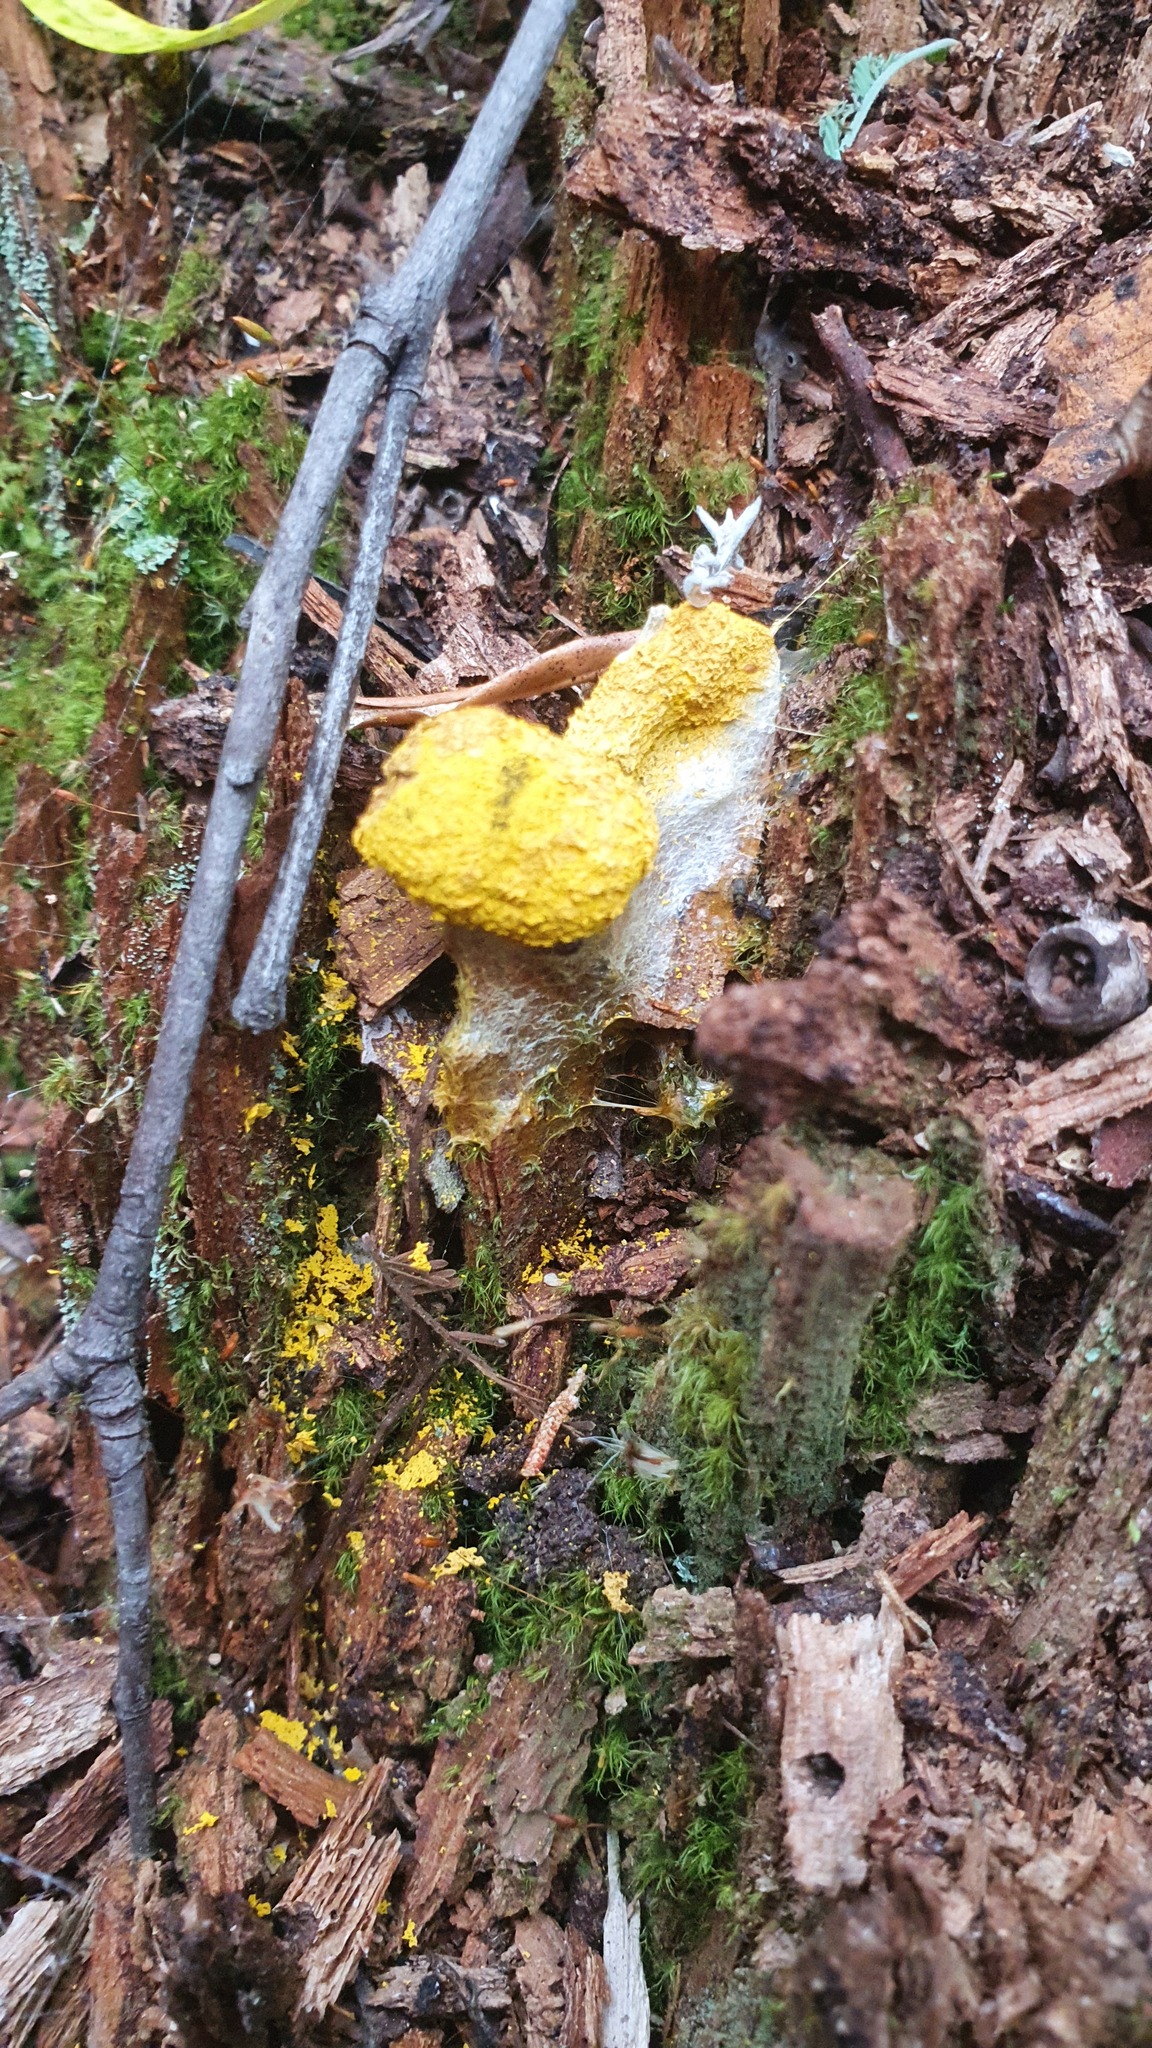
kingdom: Protozoa
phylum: Mycetozoa
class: Myxomycetes
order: Physarales
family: Physaraceae
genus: Fuligo
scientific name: Fuligo septica
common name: Dog vomit slime mold
